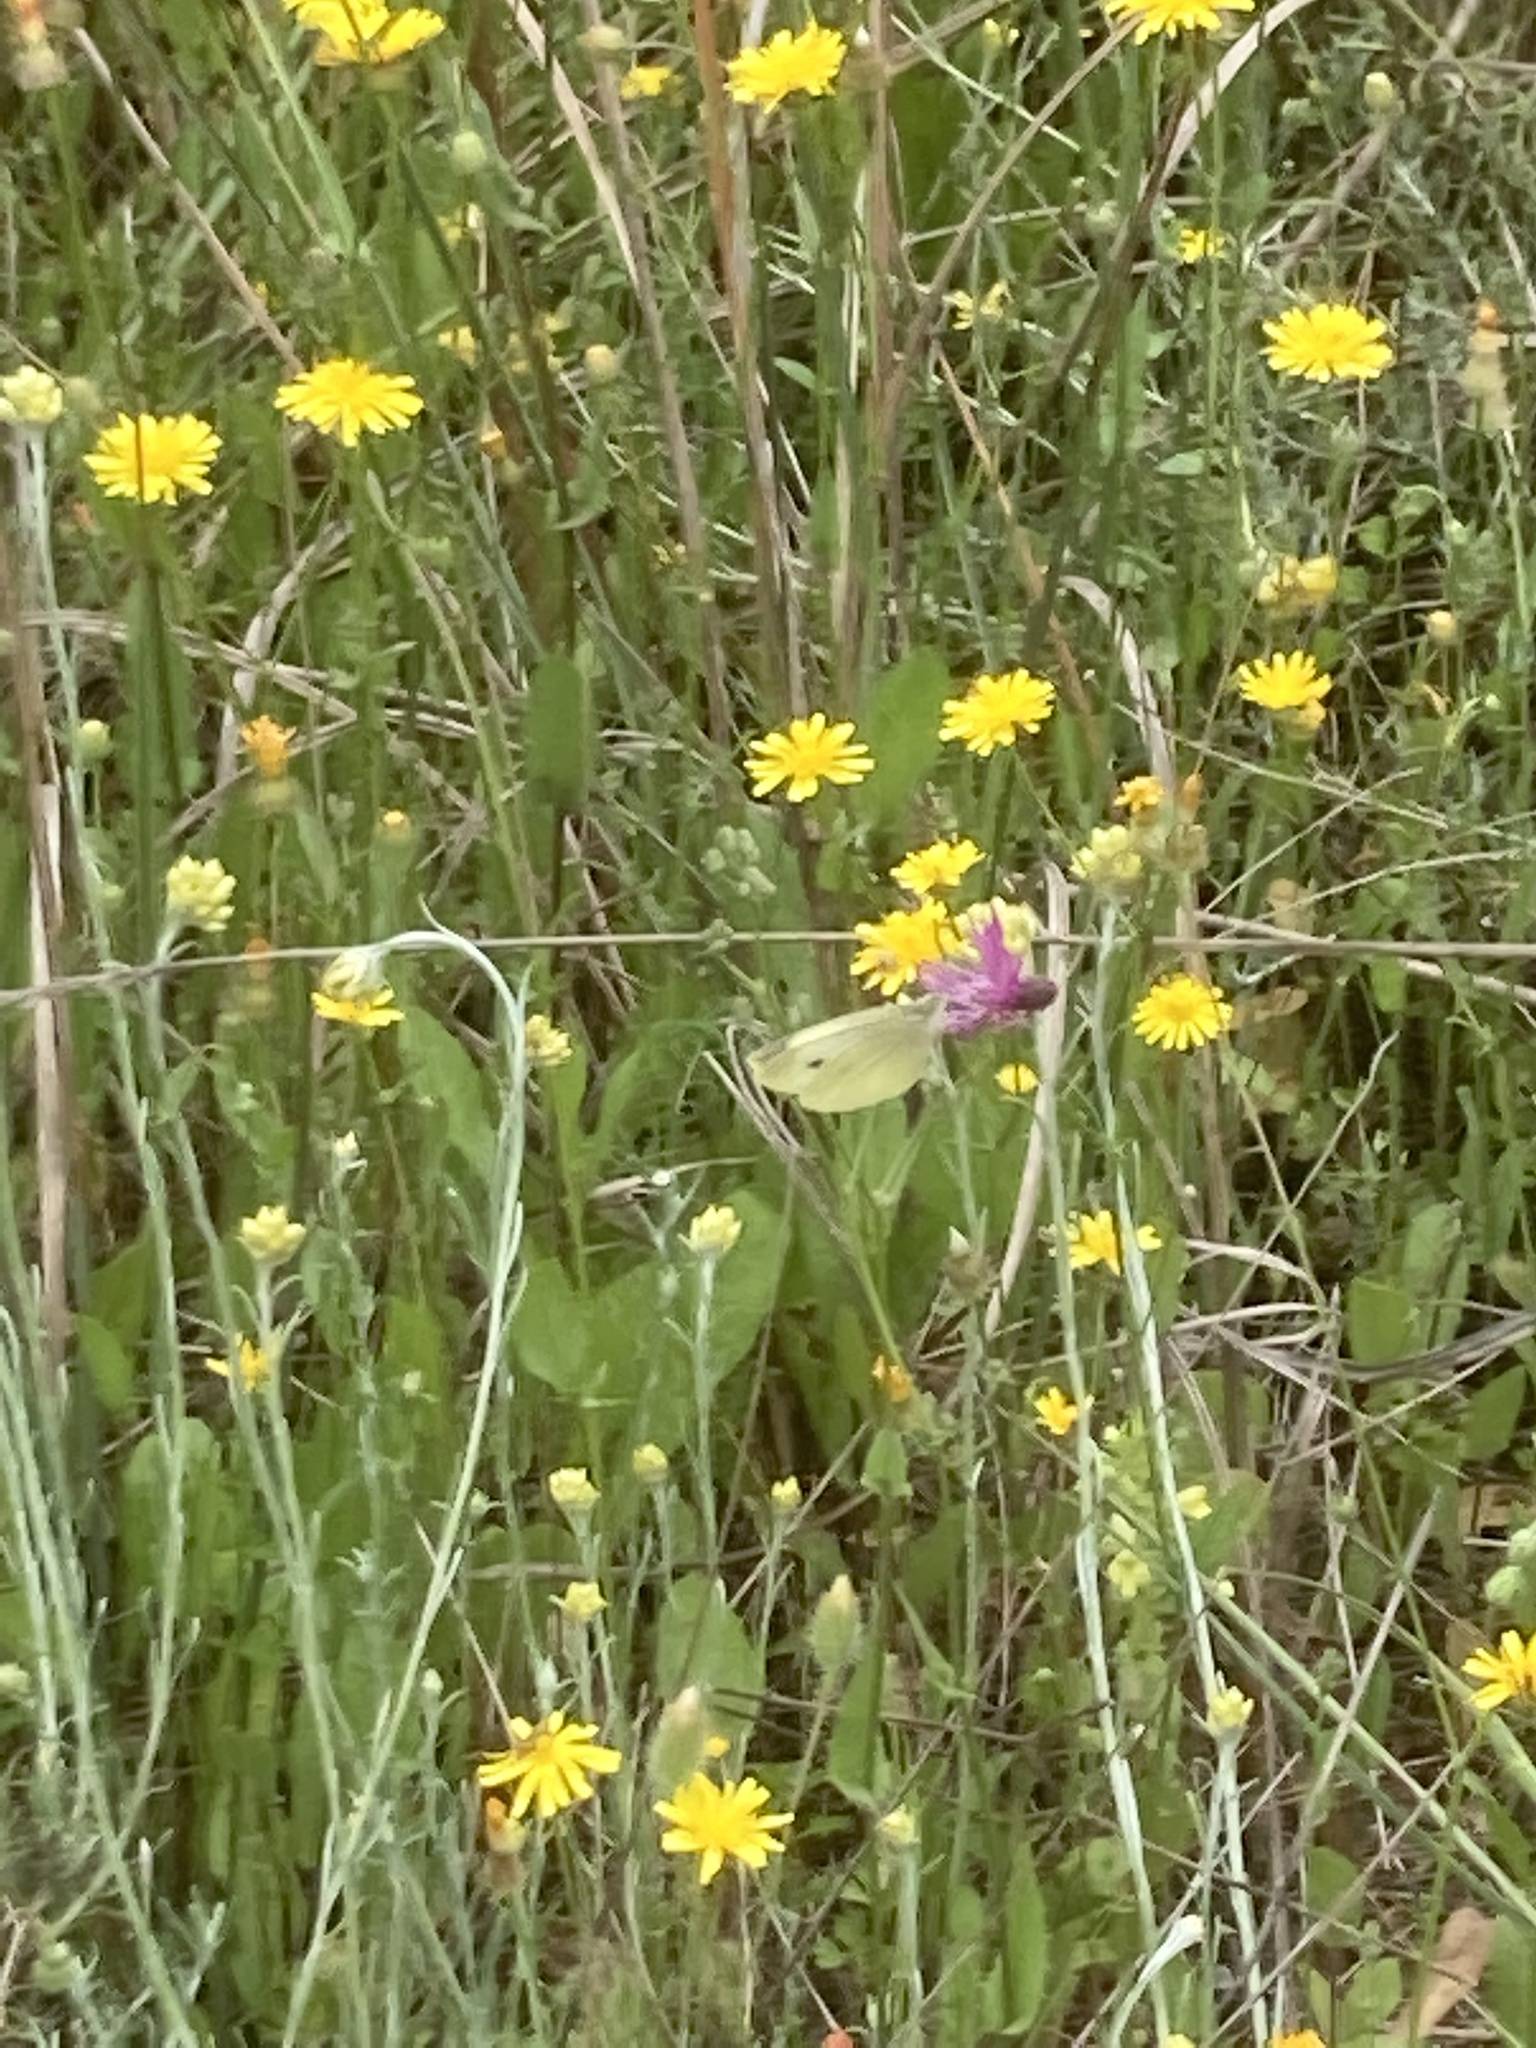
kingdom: Plantae
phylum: Tracheophyta
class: Magnoliopsida
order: Asterales
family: Asteraceae
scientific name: Asteraceae
